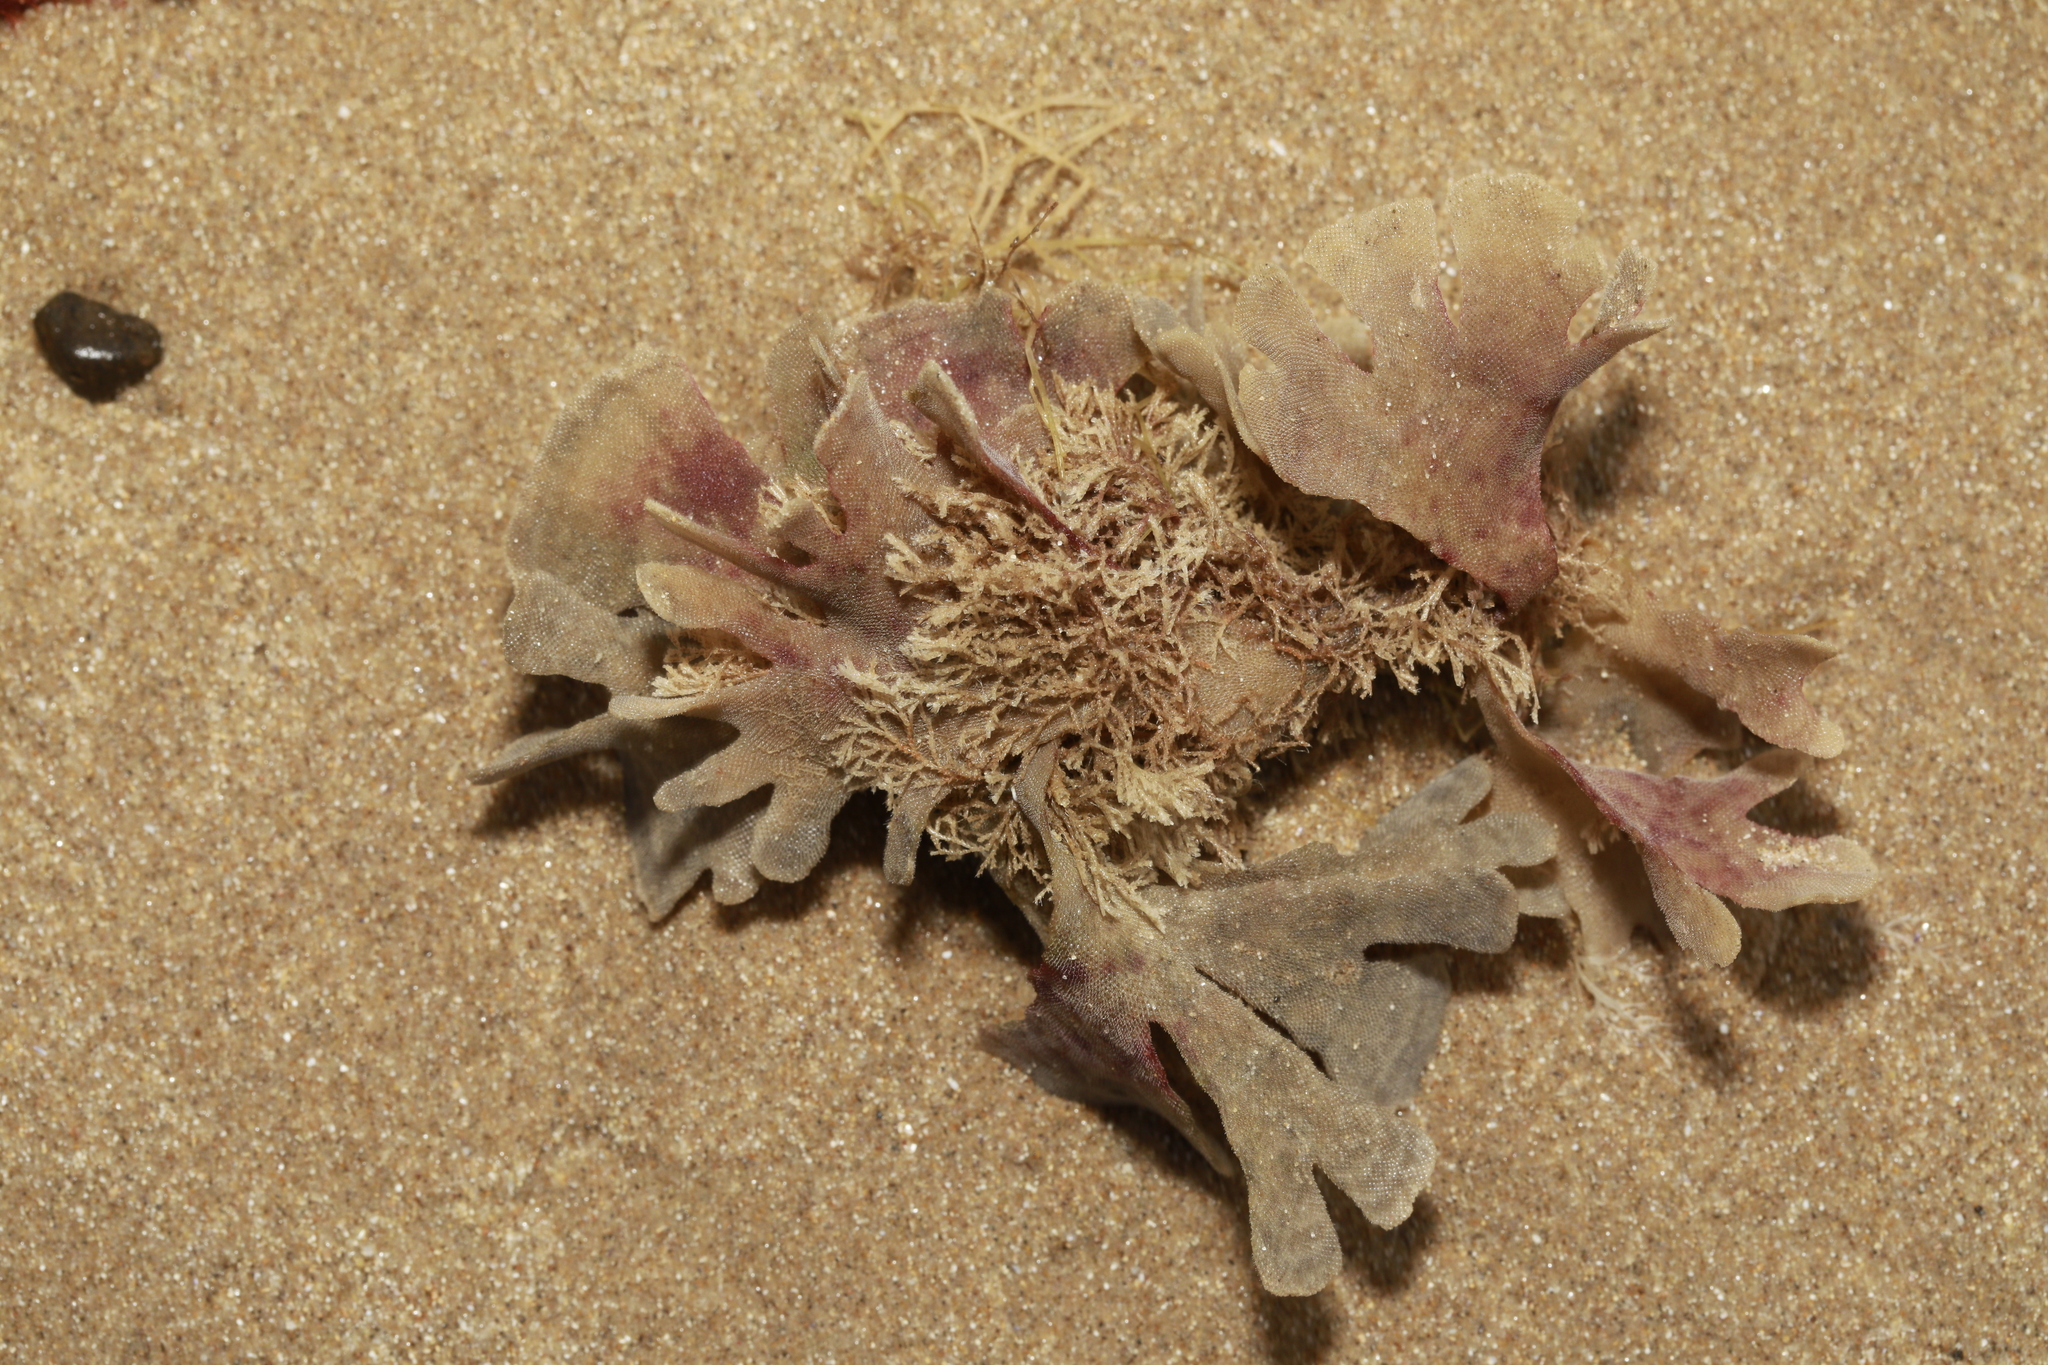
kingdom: Animalia
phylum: Bryozoa
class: Gymnolaemata
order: Cheilostomatida
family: Flustridae
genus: Flustra
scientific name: Flustra foliacea
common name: Hornwrack
